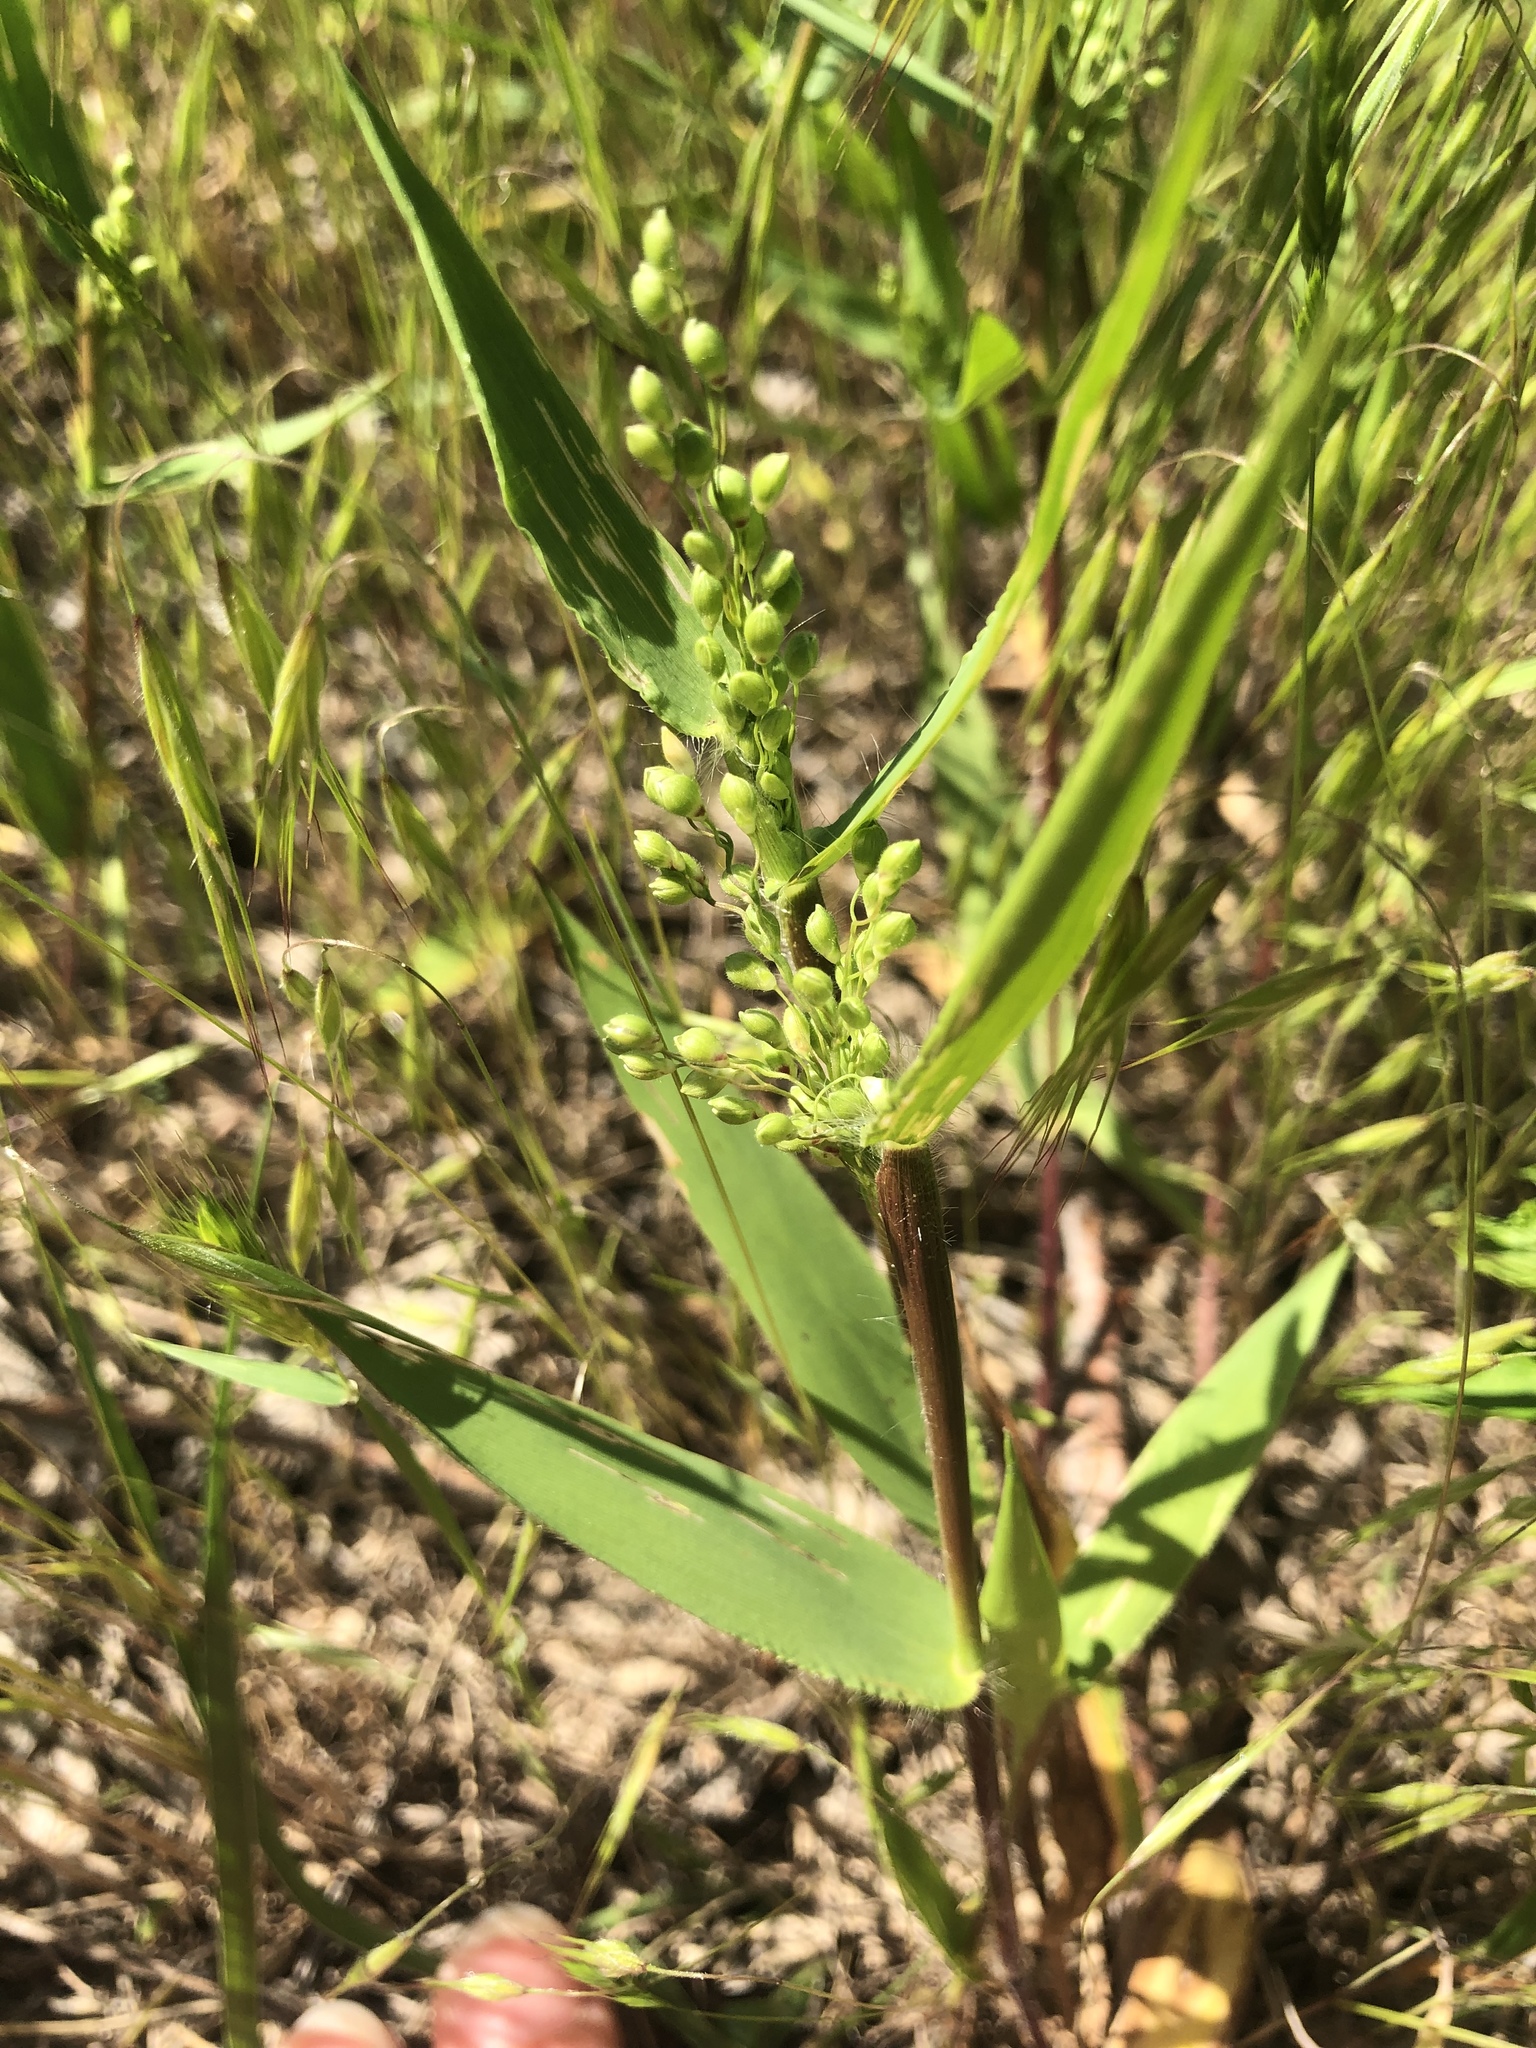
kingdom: Plantae
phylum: Tracheophyta
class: Liliopsida
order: Poales
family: Poaceae
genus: Dichanthelium
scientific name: Dichanthelium scribnerianum
